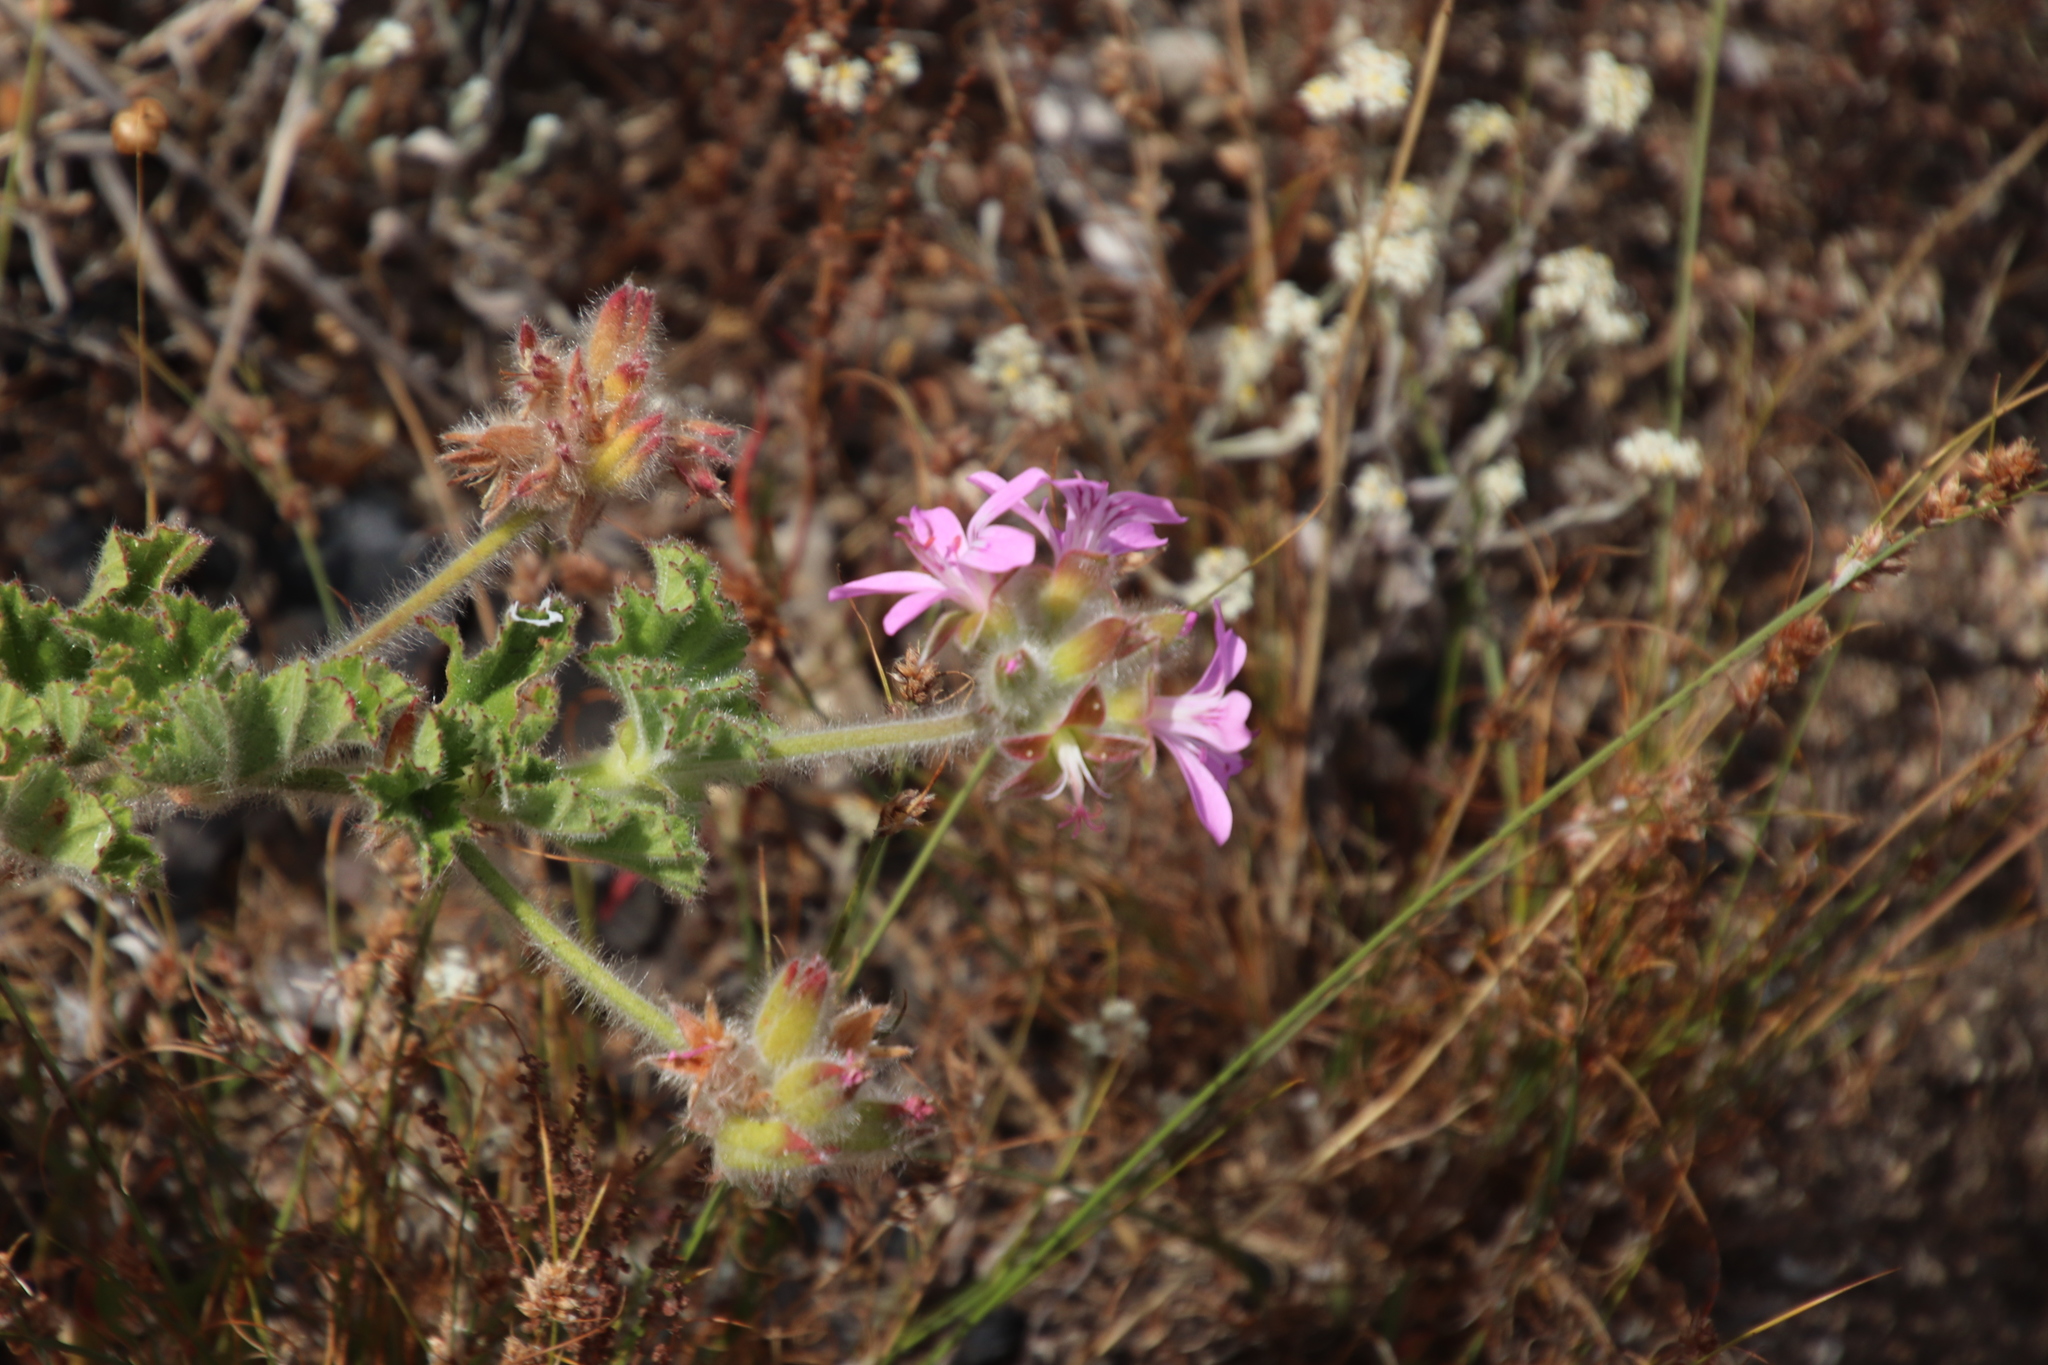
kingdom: Plantae
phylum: Tracheophyta
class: Magnoliopsida
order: Geraniales
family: Geraniaceae
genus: Pelargonium
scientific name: Pelargonium capitatum
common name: Rose scented geranium
